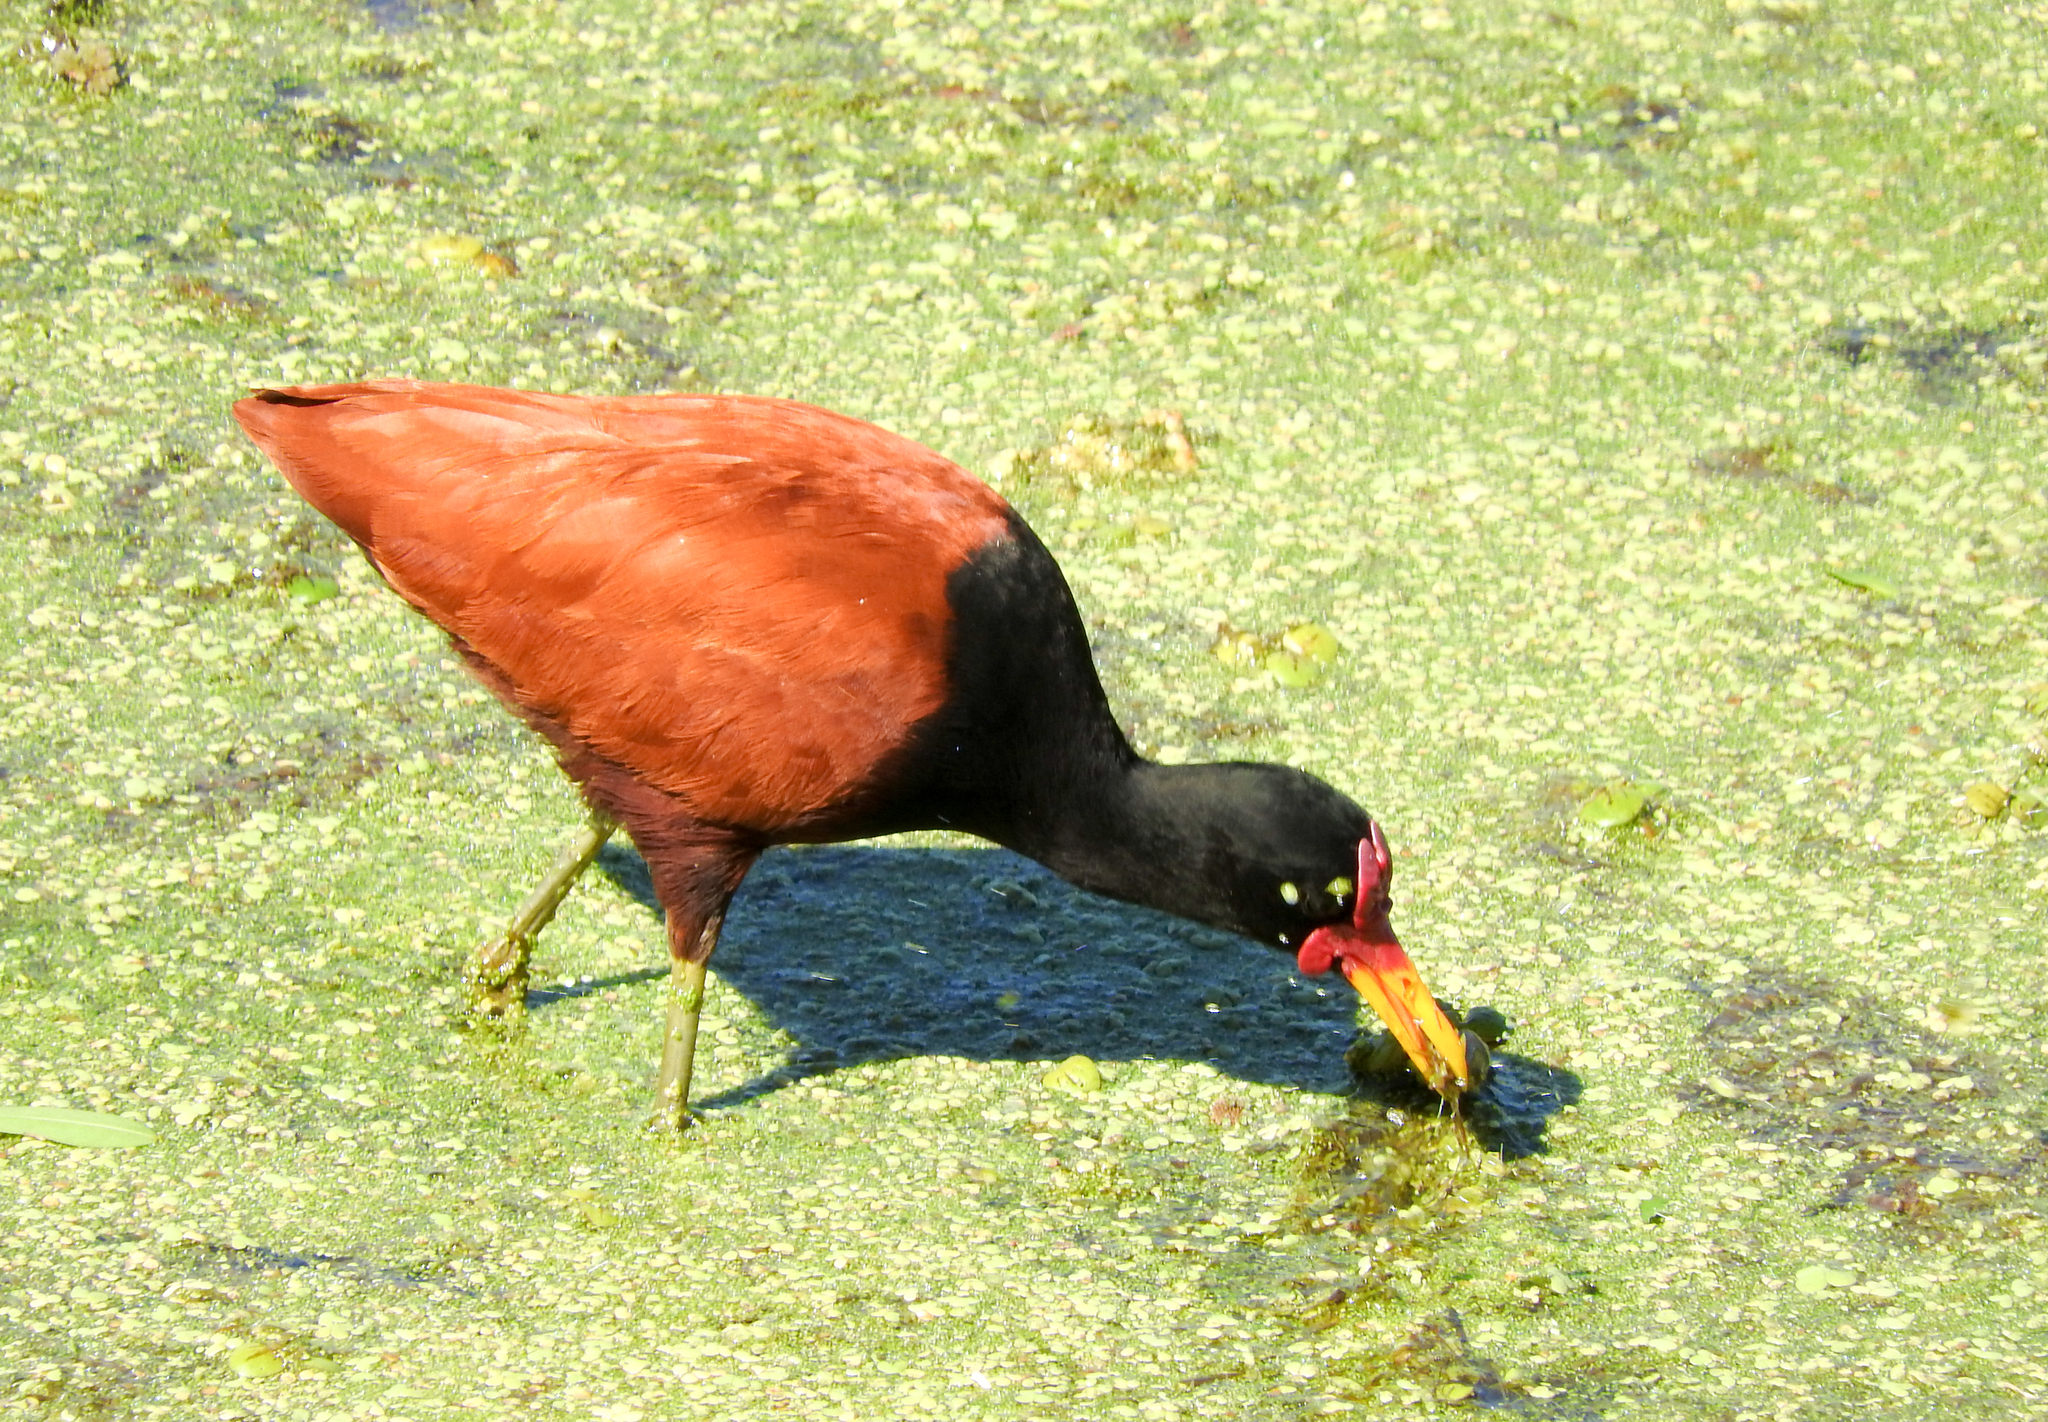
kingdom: Animalia
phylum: Chordata
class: Aves
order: Charadriiformes
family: Jacanidae
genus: Jacana
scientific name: Jacana jacana
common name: Wattled jacana
